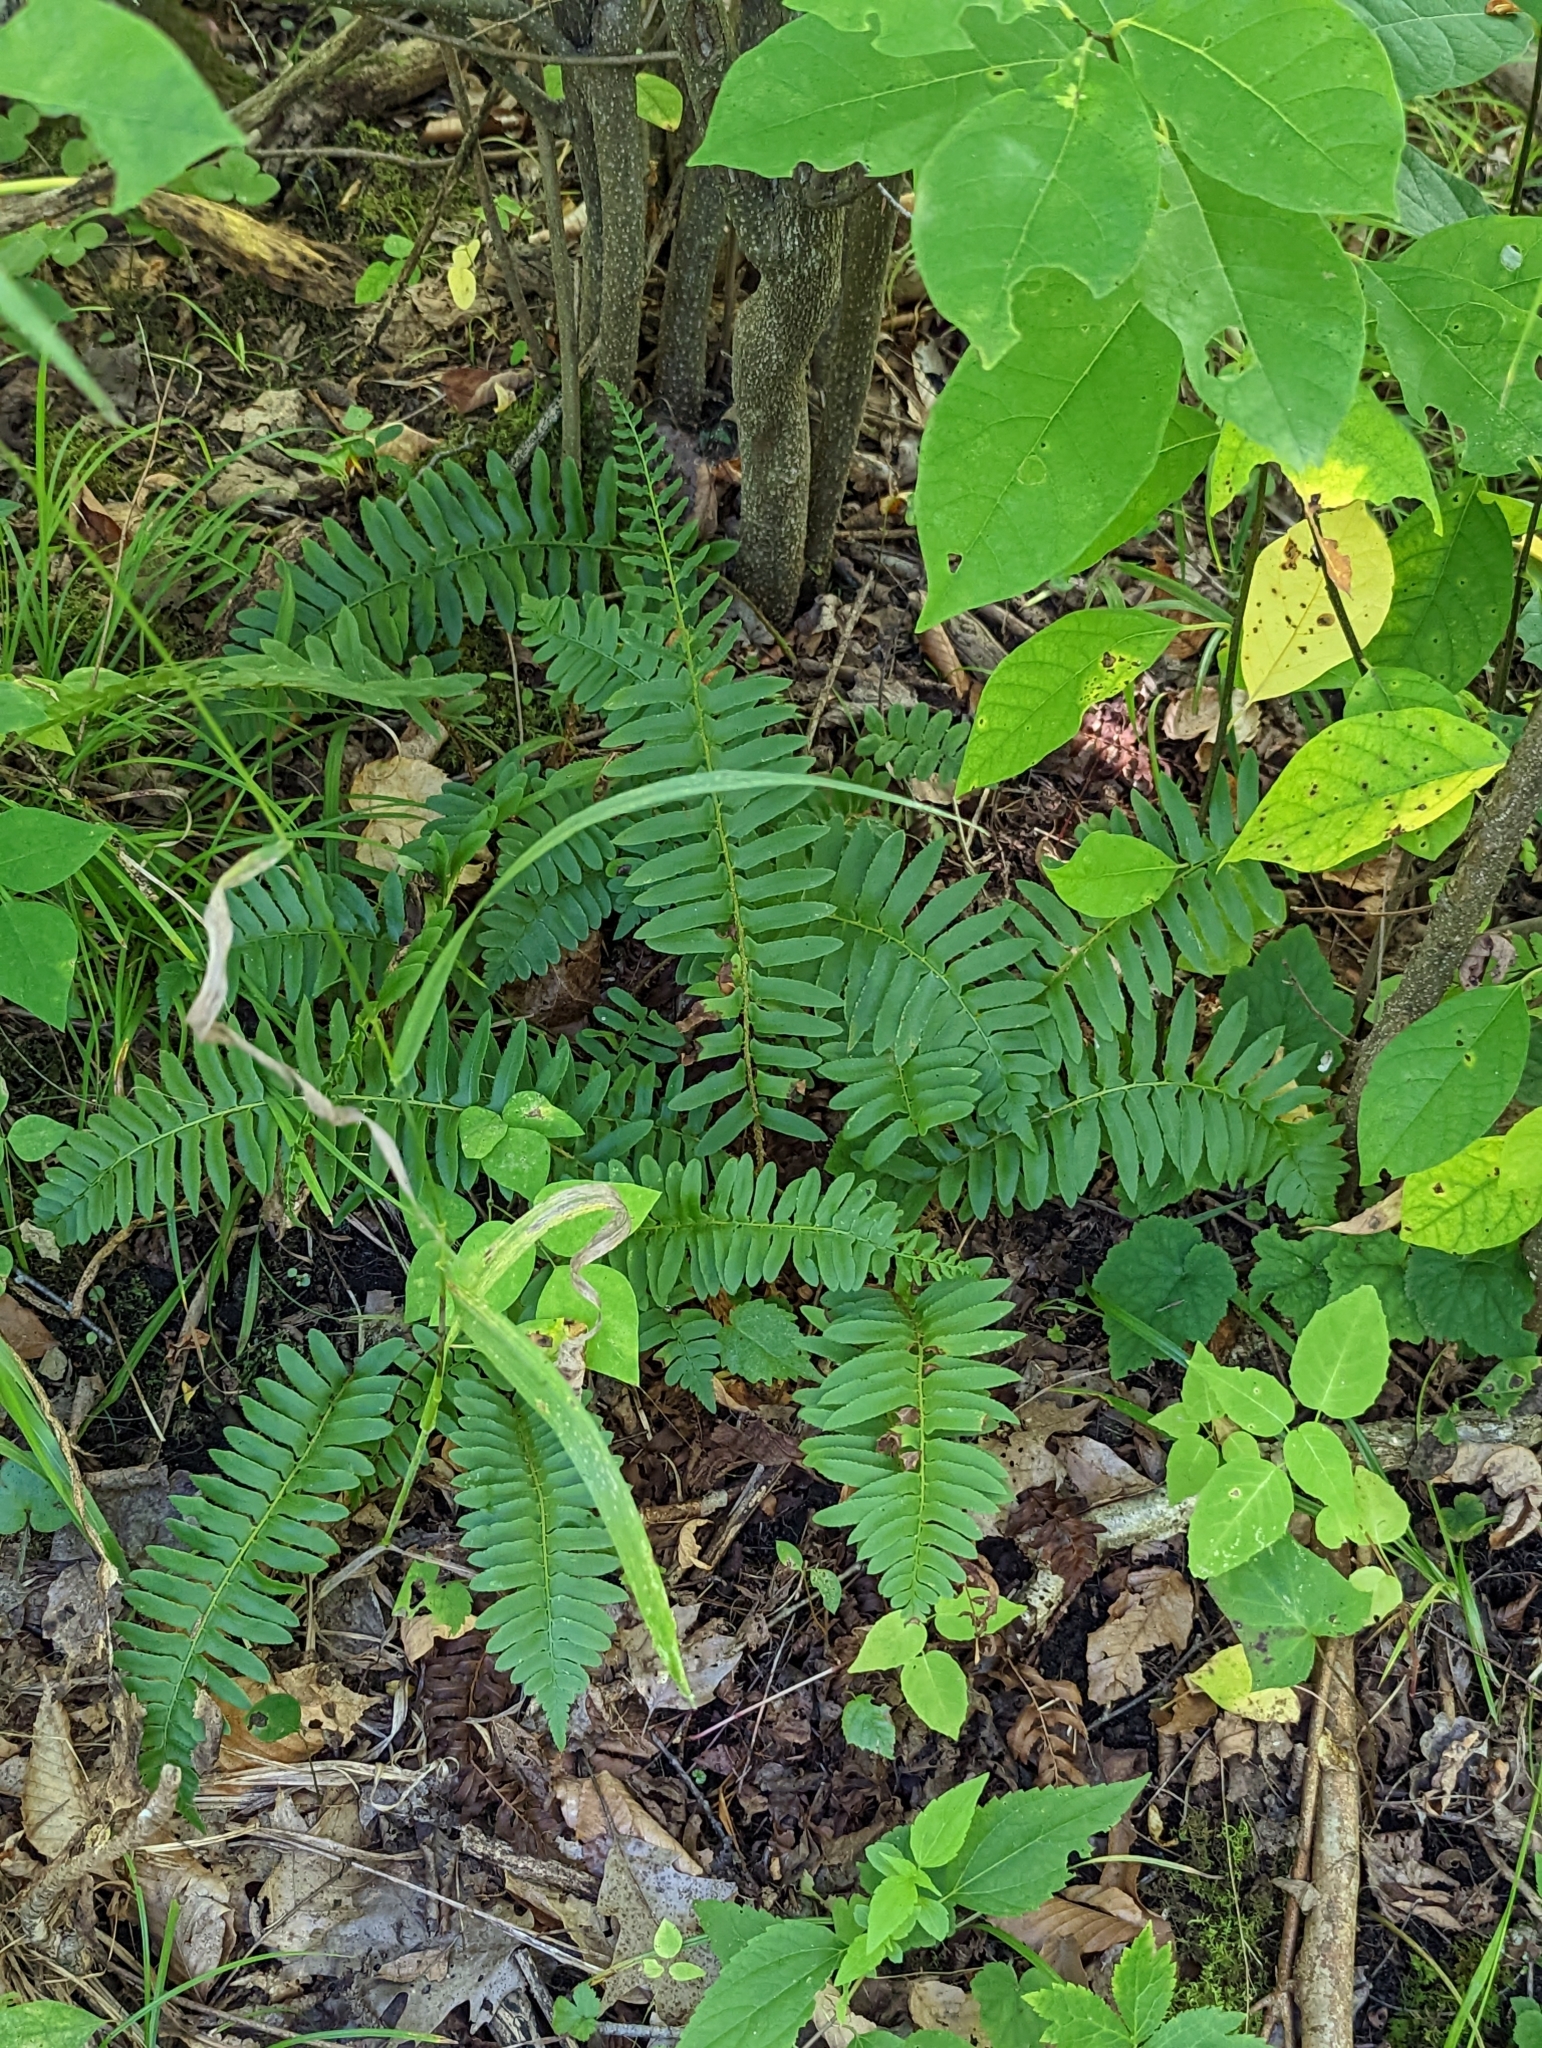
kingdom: Plantae
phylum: Tracheophyta
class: Polypodiopsida
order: Polypodiales
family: Dryopteridaceae
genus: Polystichum
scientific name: Polystichum acrostichoides
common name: Christmas fern
